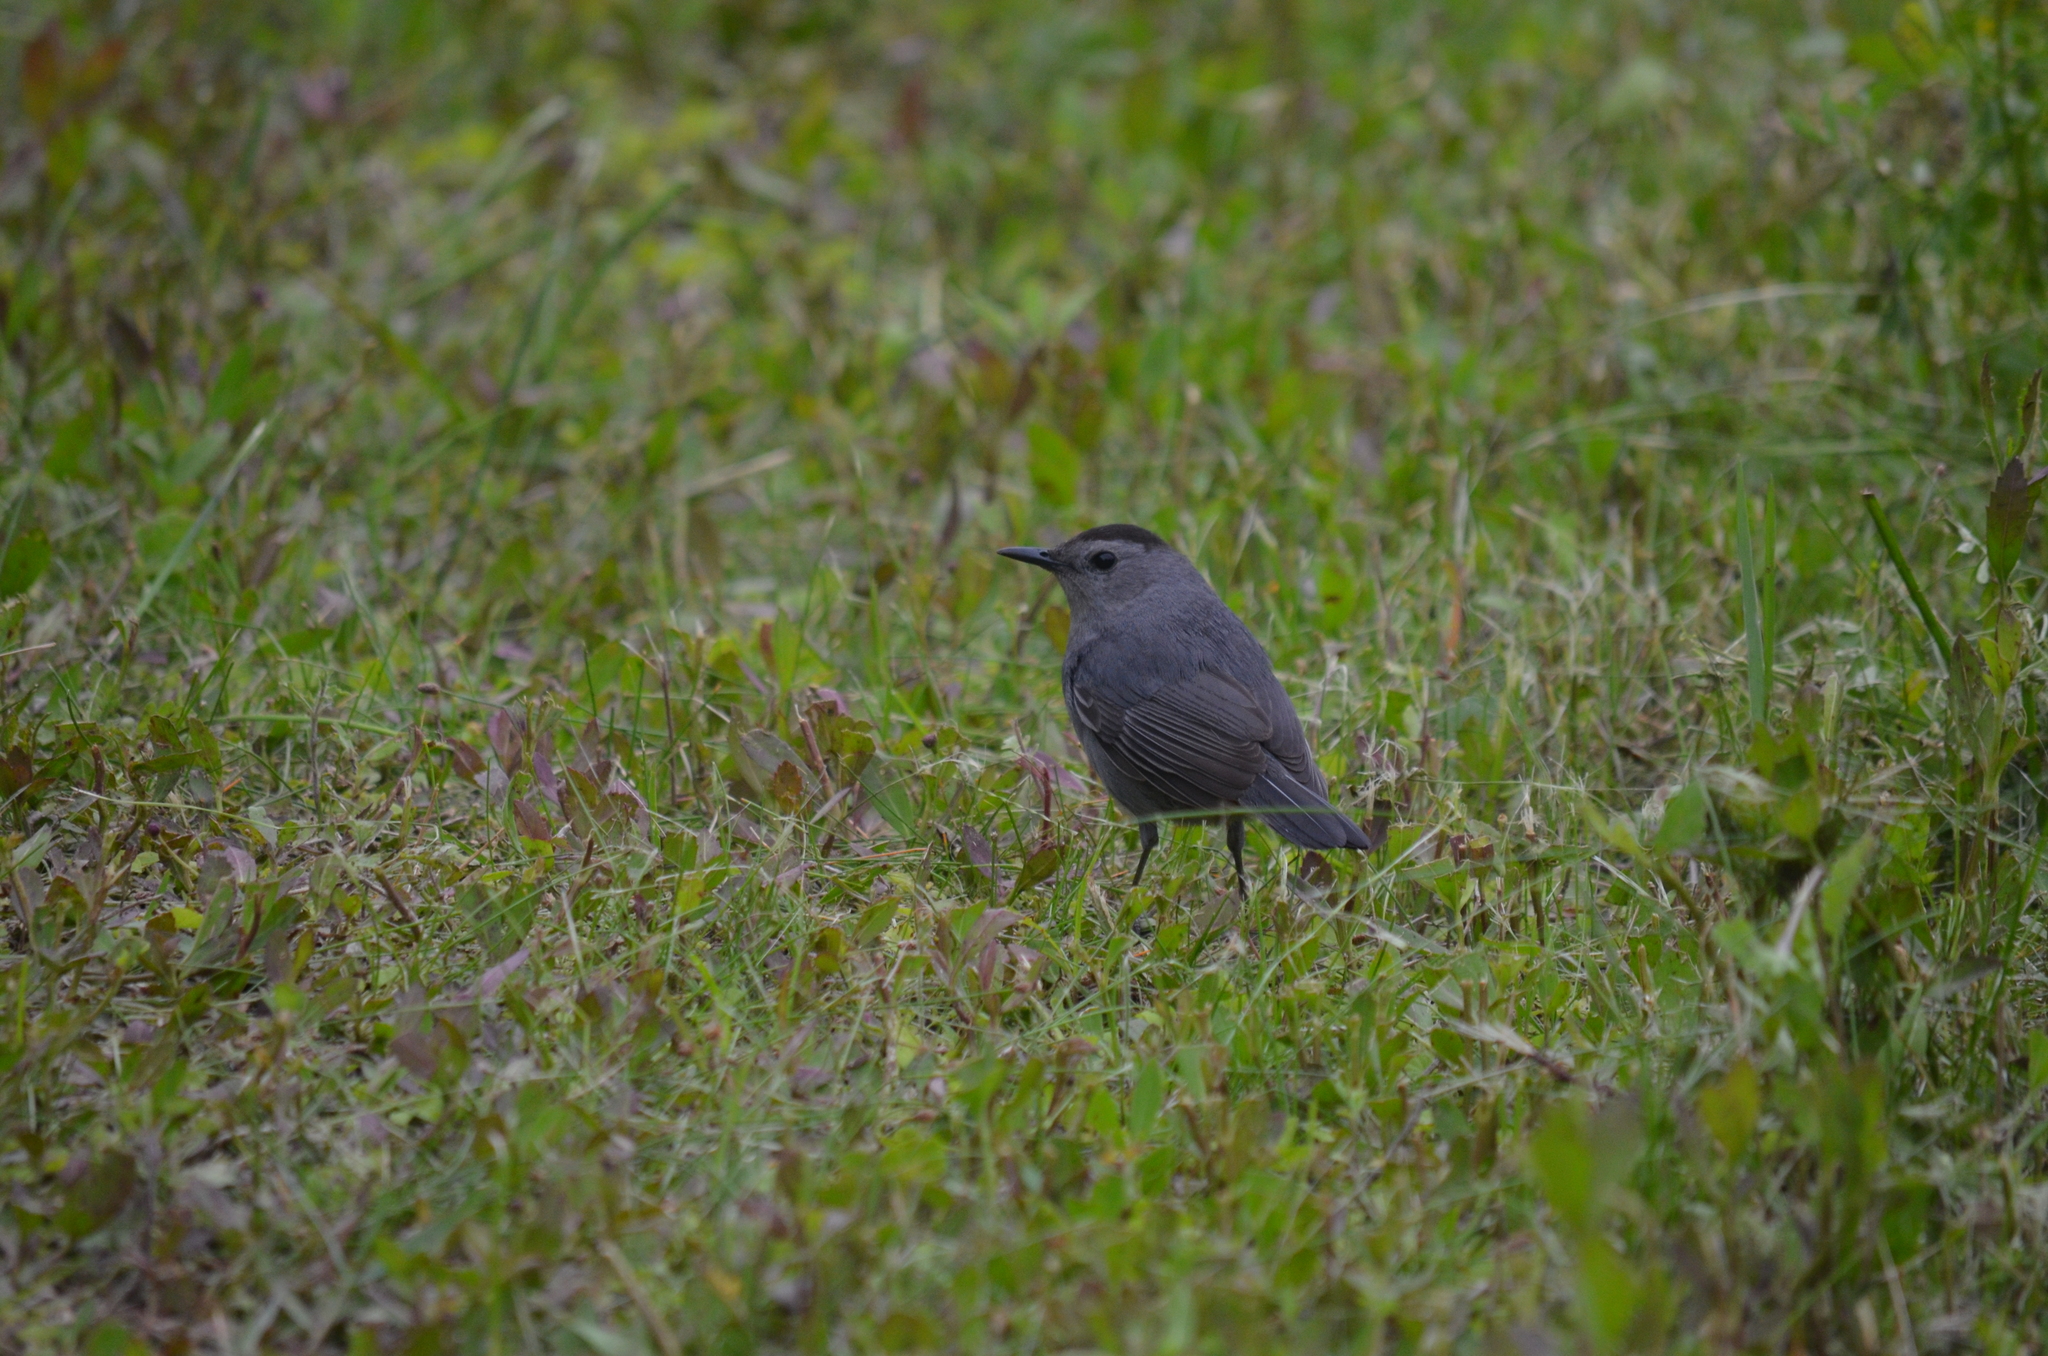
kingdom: Animalia
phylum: Chordata
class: Aves
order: Passeriformes
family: Mimidae
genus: Dumetella
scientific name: Dumetella carolinensis
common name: Gray catbird
